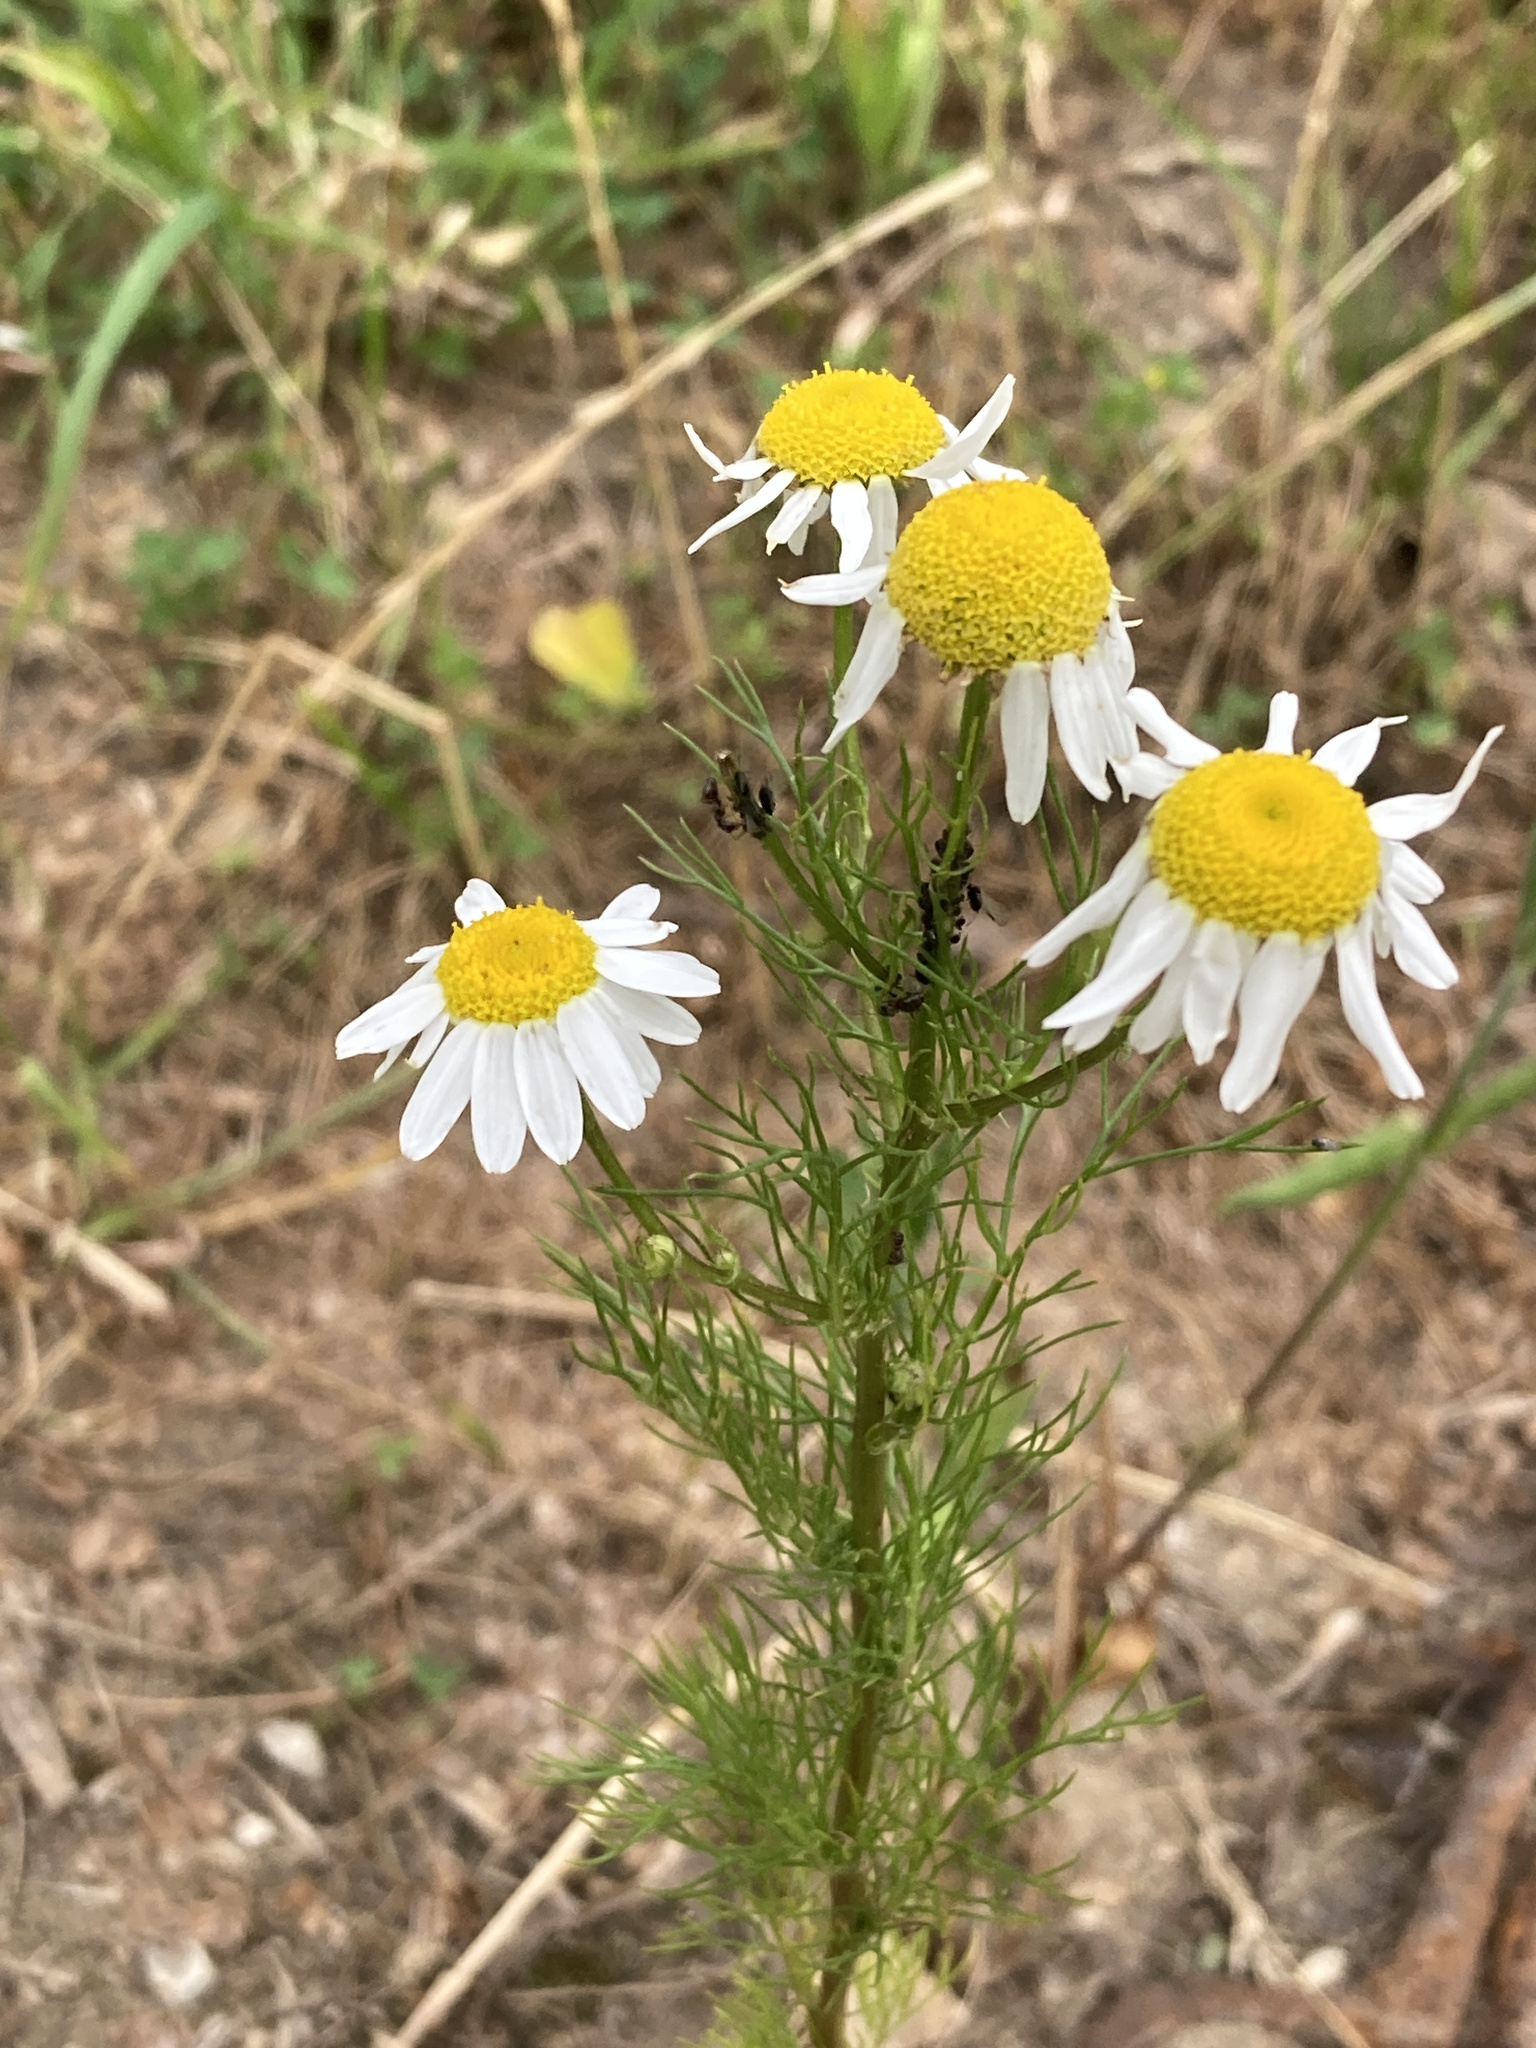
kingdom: Plantae
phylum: Tracheophyta
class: Magnoliopsida
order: Asterales
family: Asteraceae
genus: Tripleurospermum
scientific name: Tripleurospermum inodorum
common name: Scentless mayweed
